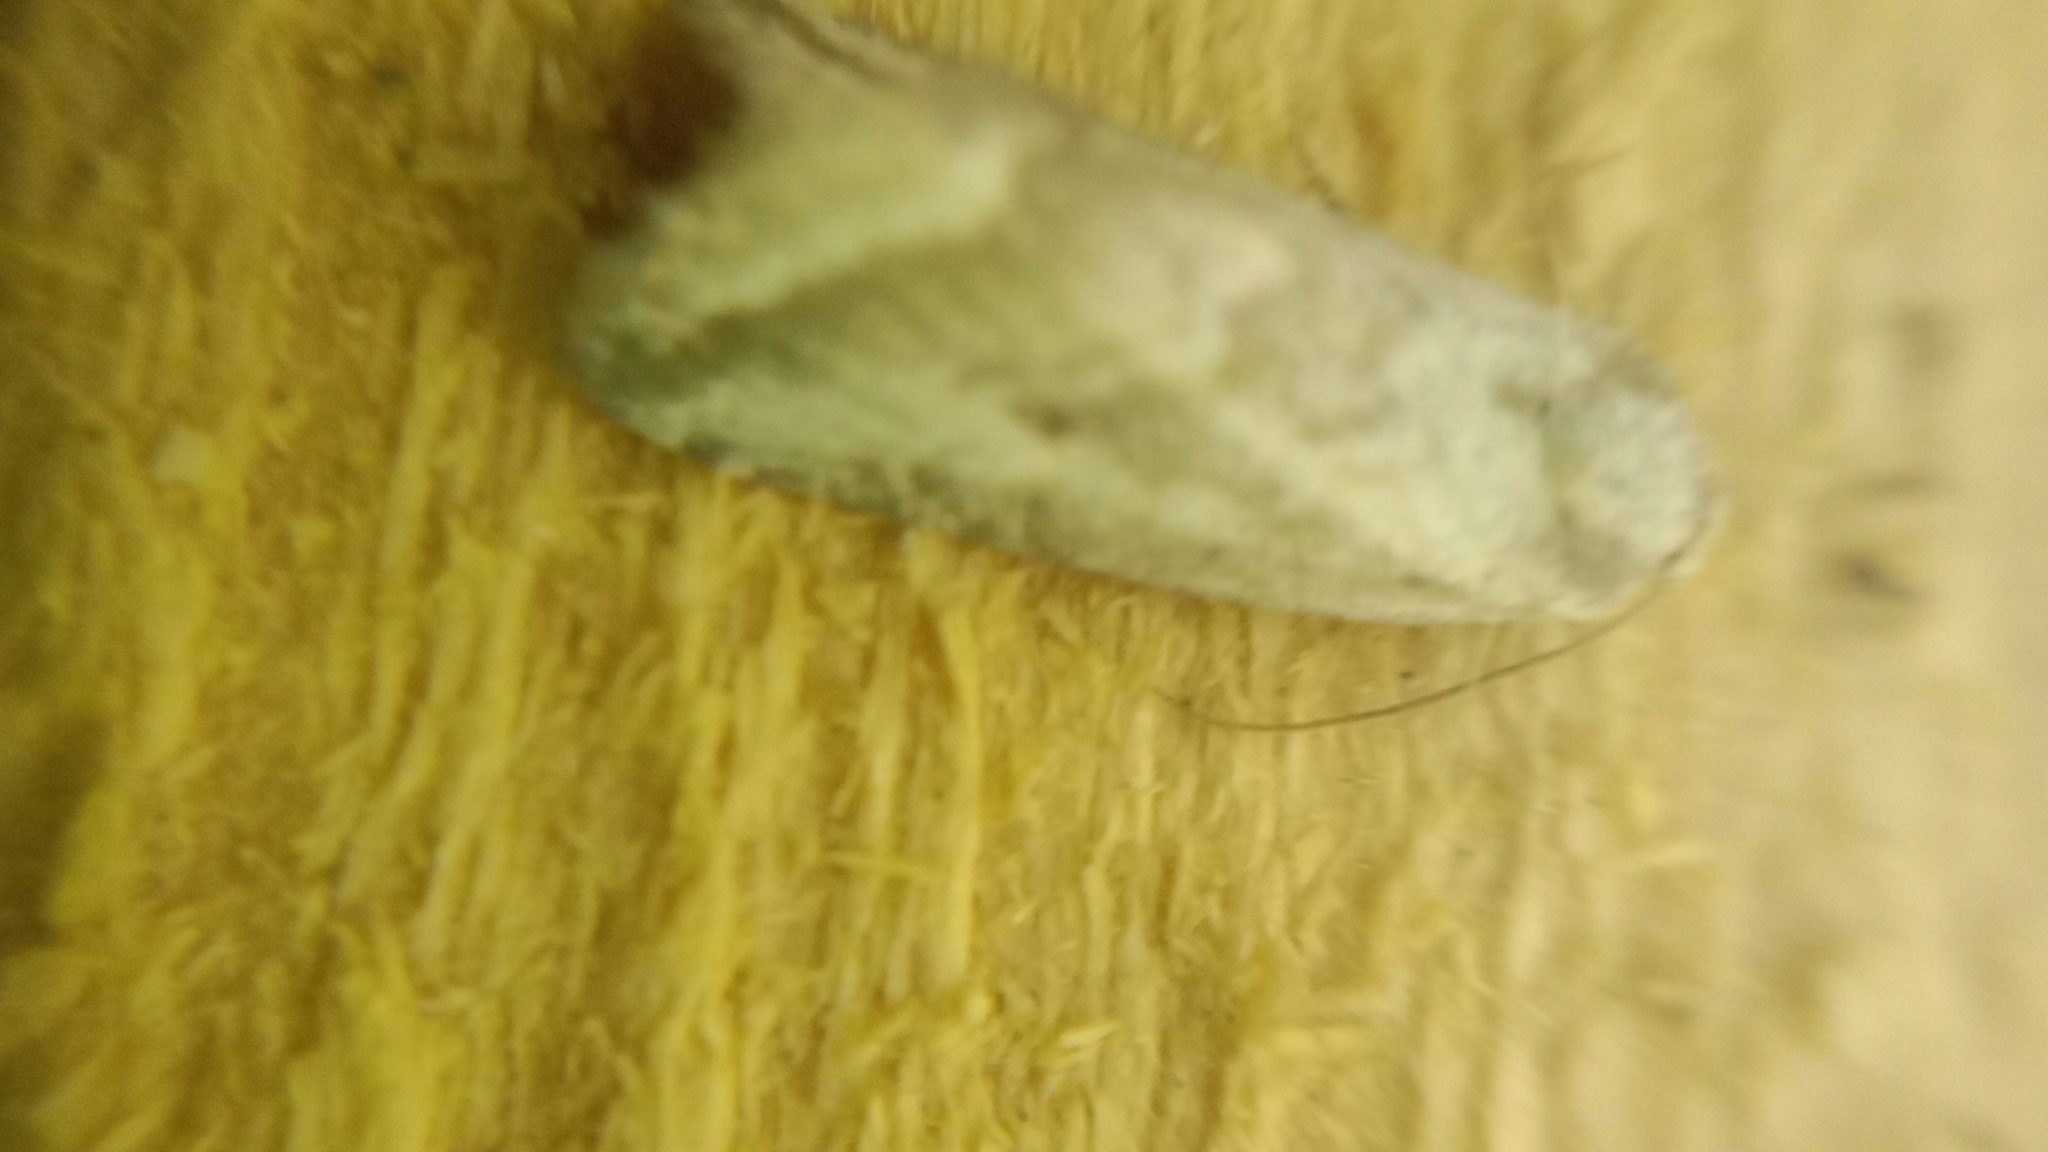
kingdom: Animalia
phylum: Arthropoda
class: Insecta
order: Lepidoptera
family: Noctuidae
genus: Phyllophila
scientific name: Phyllophila obliterata
